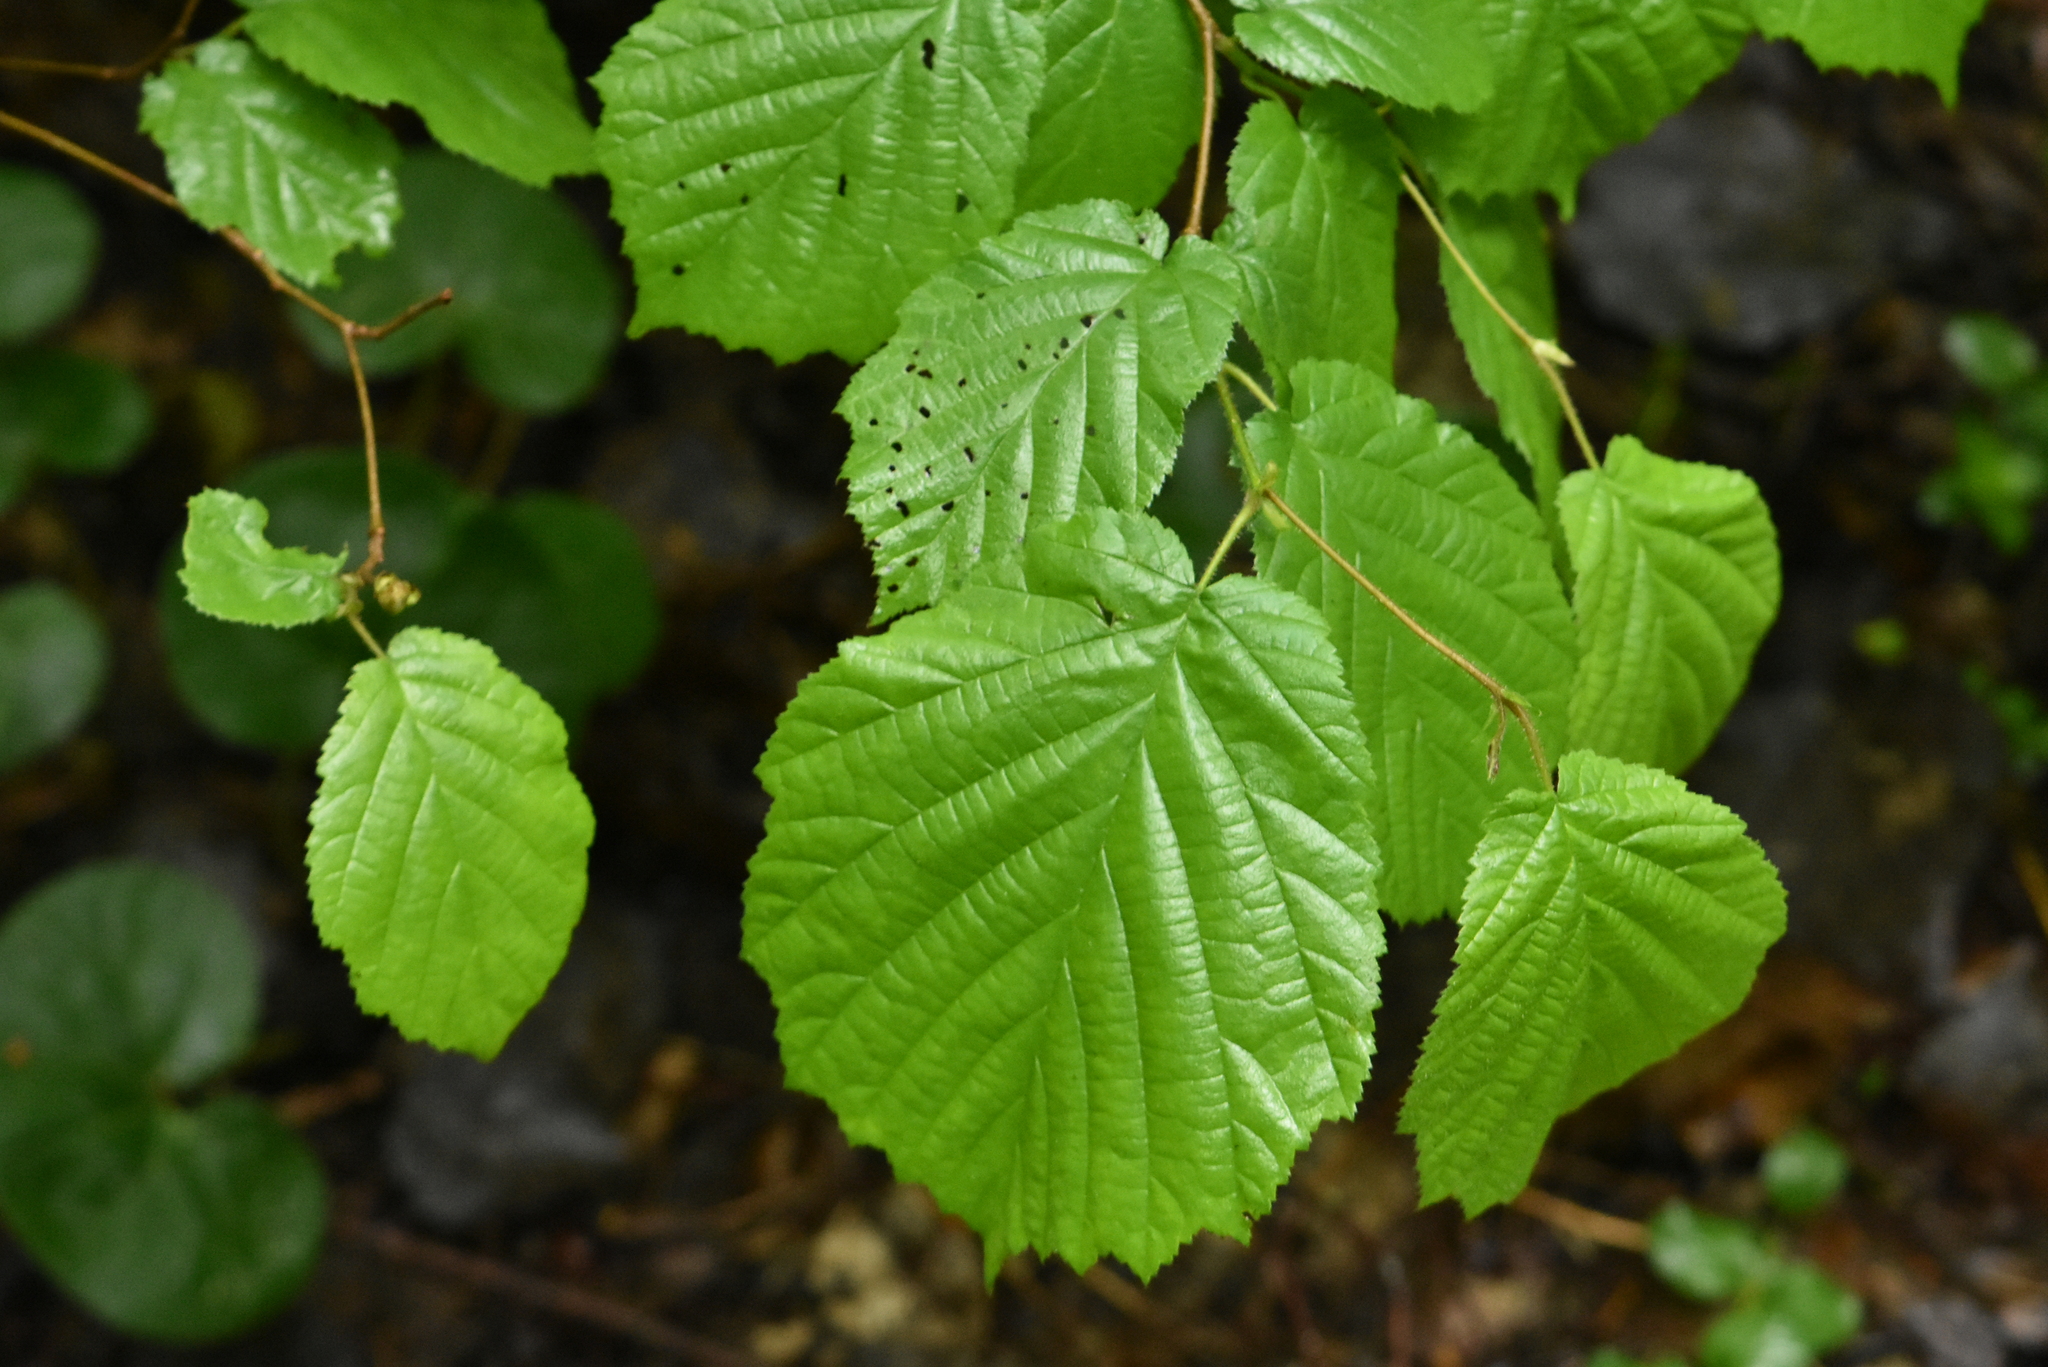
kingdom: Plantae
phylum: Tracheophyta
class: Magnoliopsida
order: Fagales
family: Betulaceae
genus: Corylus
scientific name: Corylus avellana
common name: European hazel
